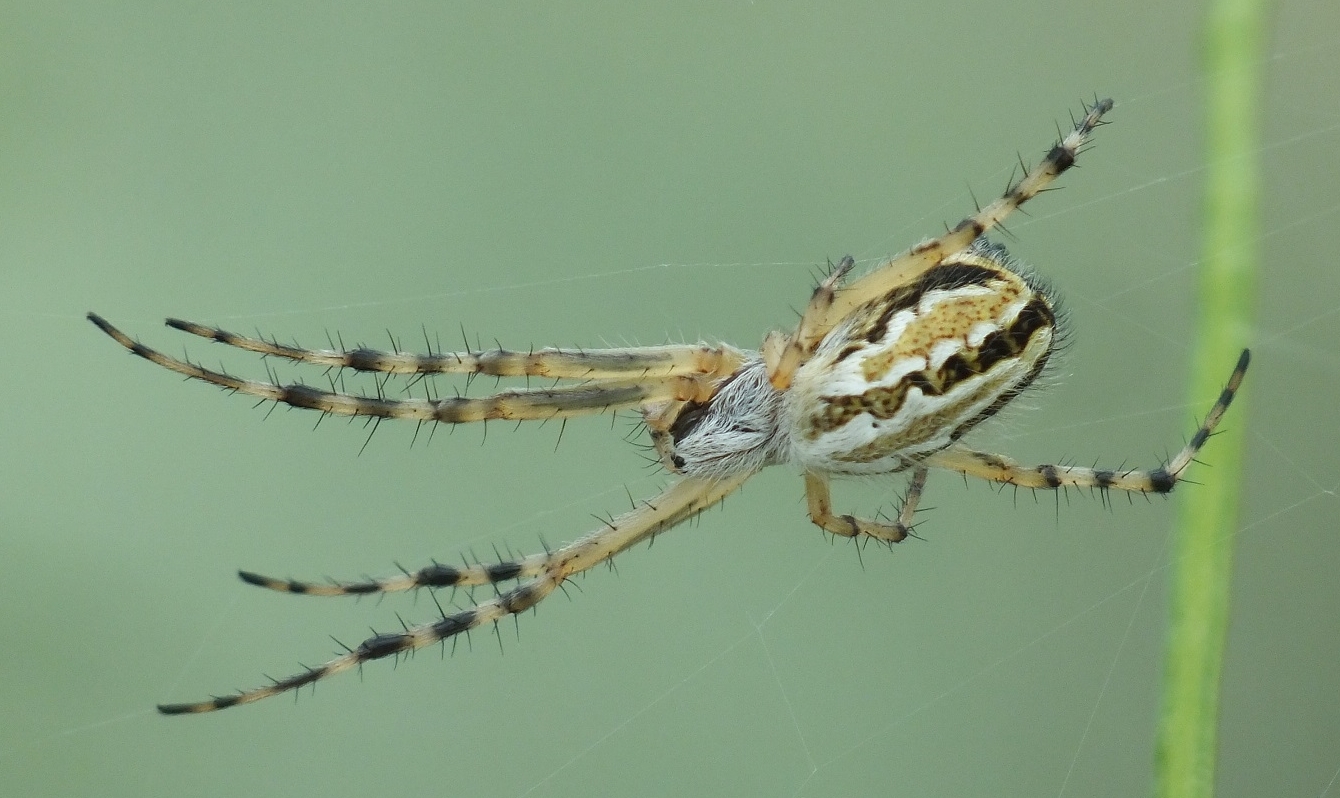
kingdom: Animalia
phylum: Arthropoda
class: Arachnida
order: Araneae
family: Araneidae
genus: Aculepeira
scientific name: Aculepeira armida
